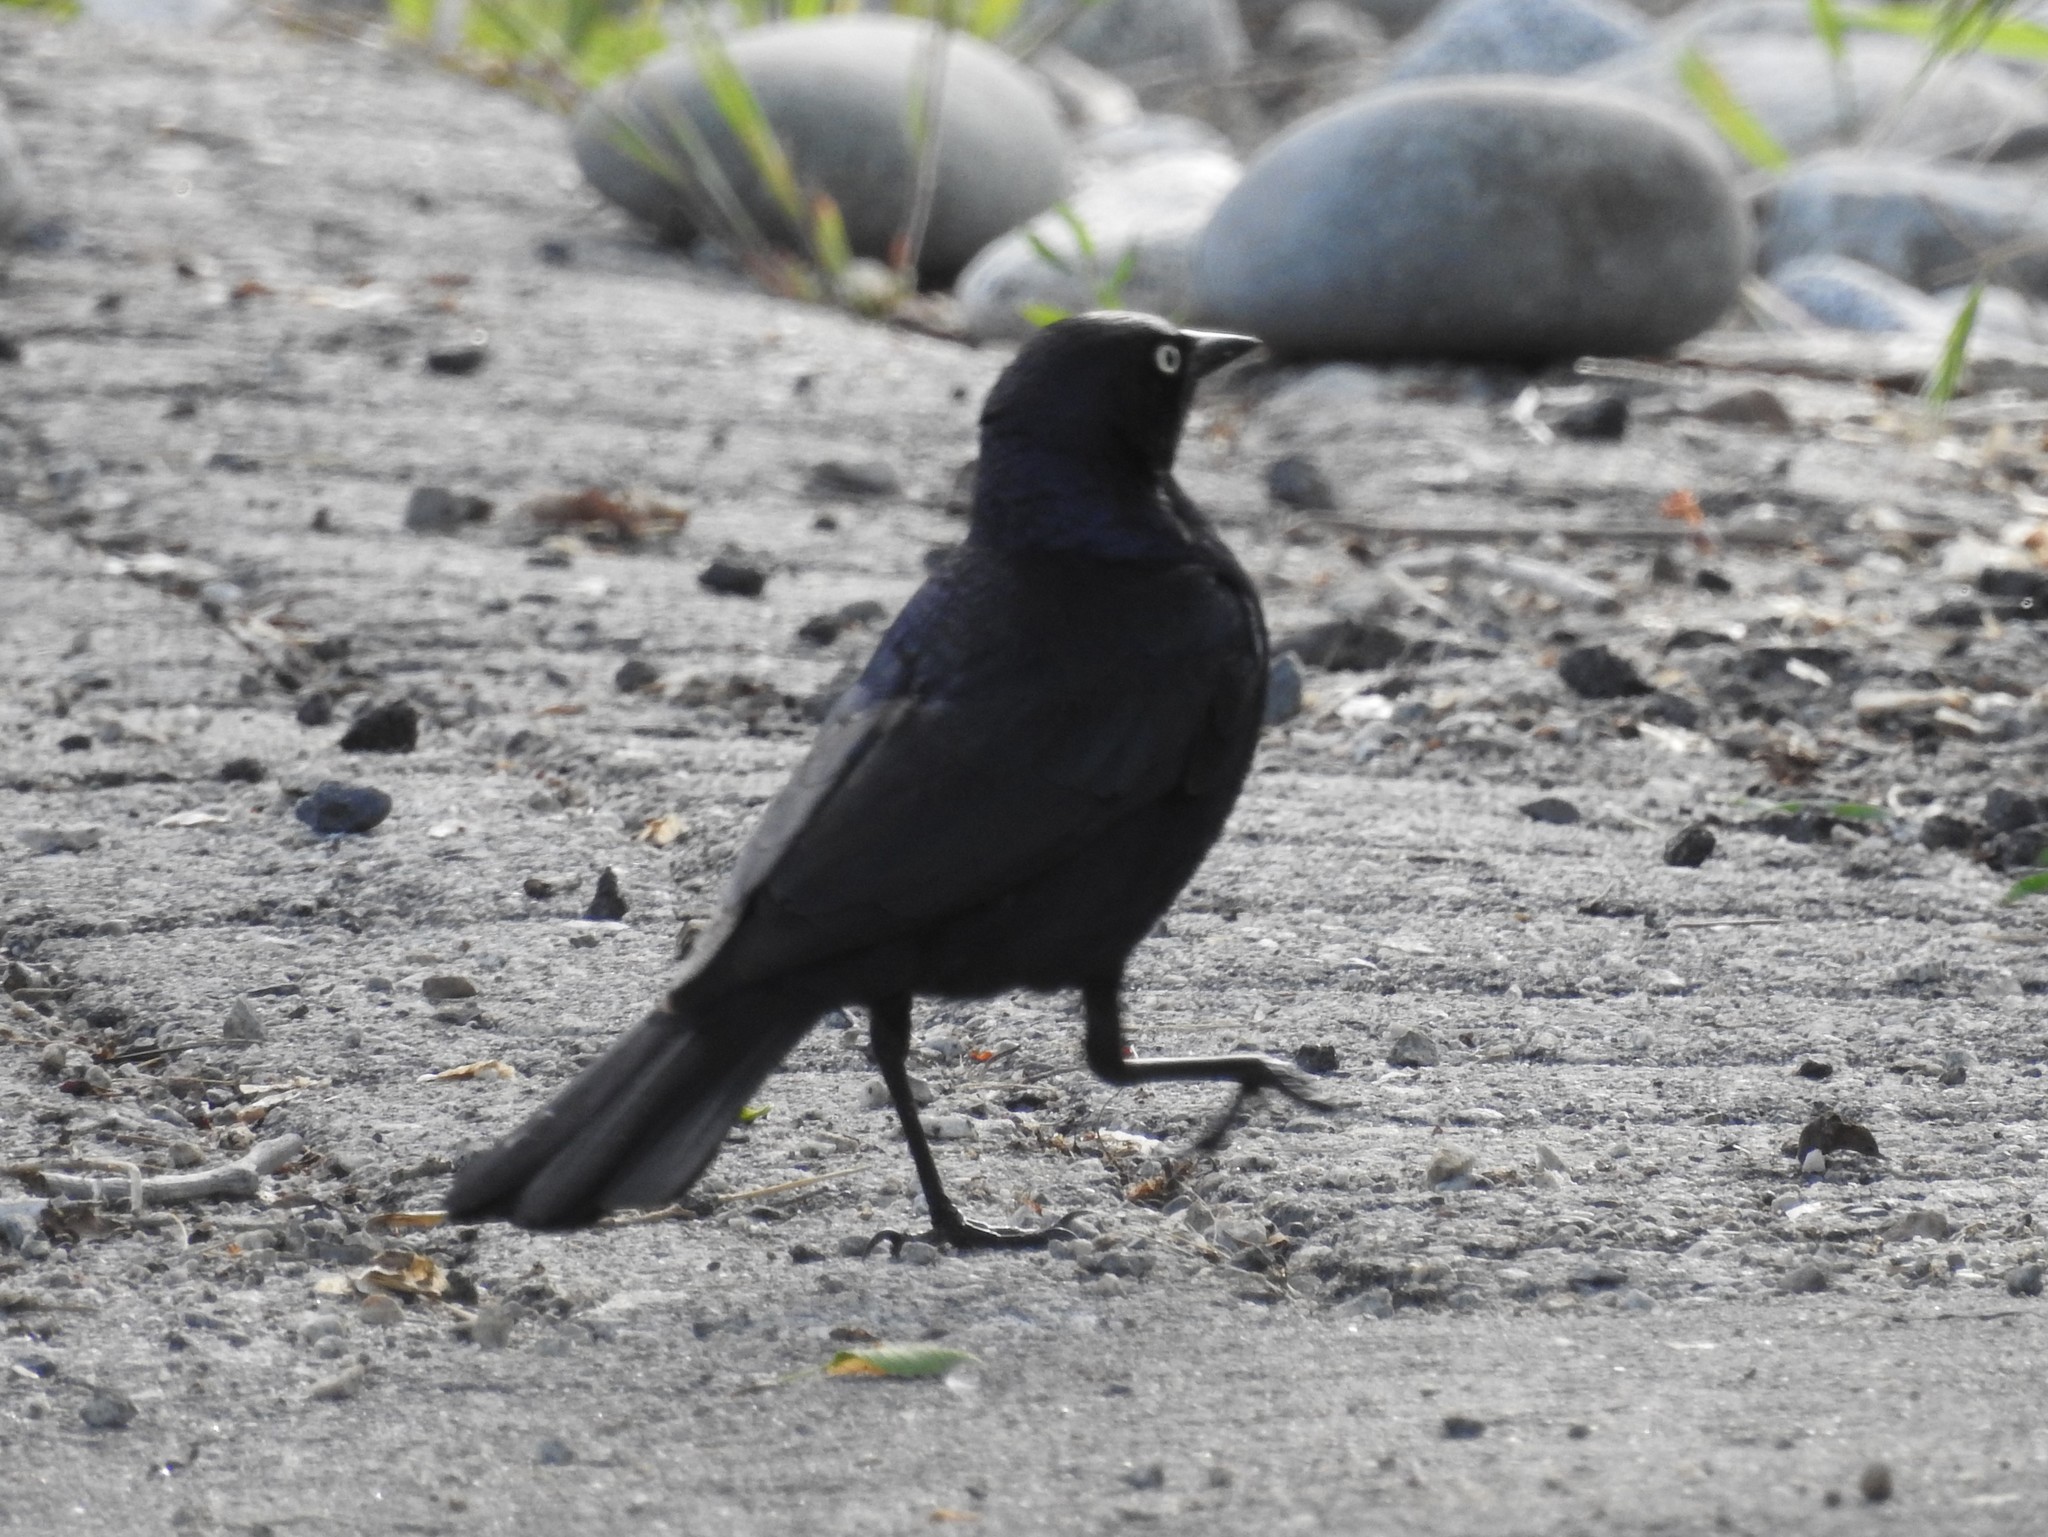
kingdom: Animalia
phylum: Chordata
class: Aves
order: Passeriformes
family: Icteridae
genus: Euphagus
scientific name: Euphagus cyanocephalus
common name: Brewer's blackbird
